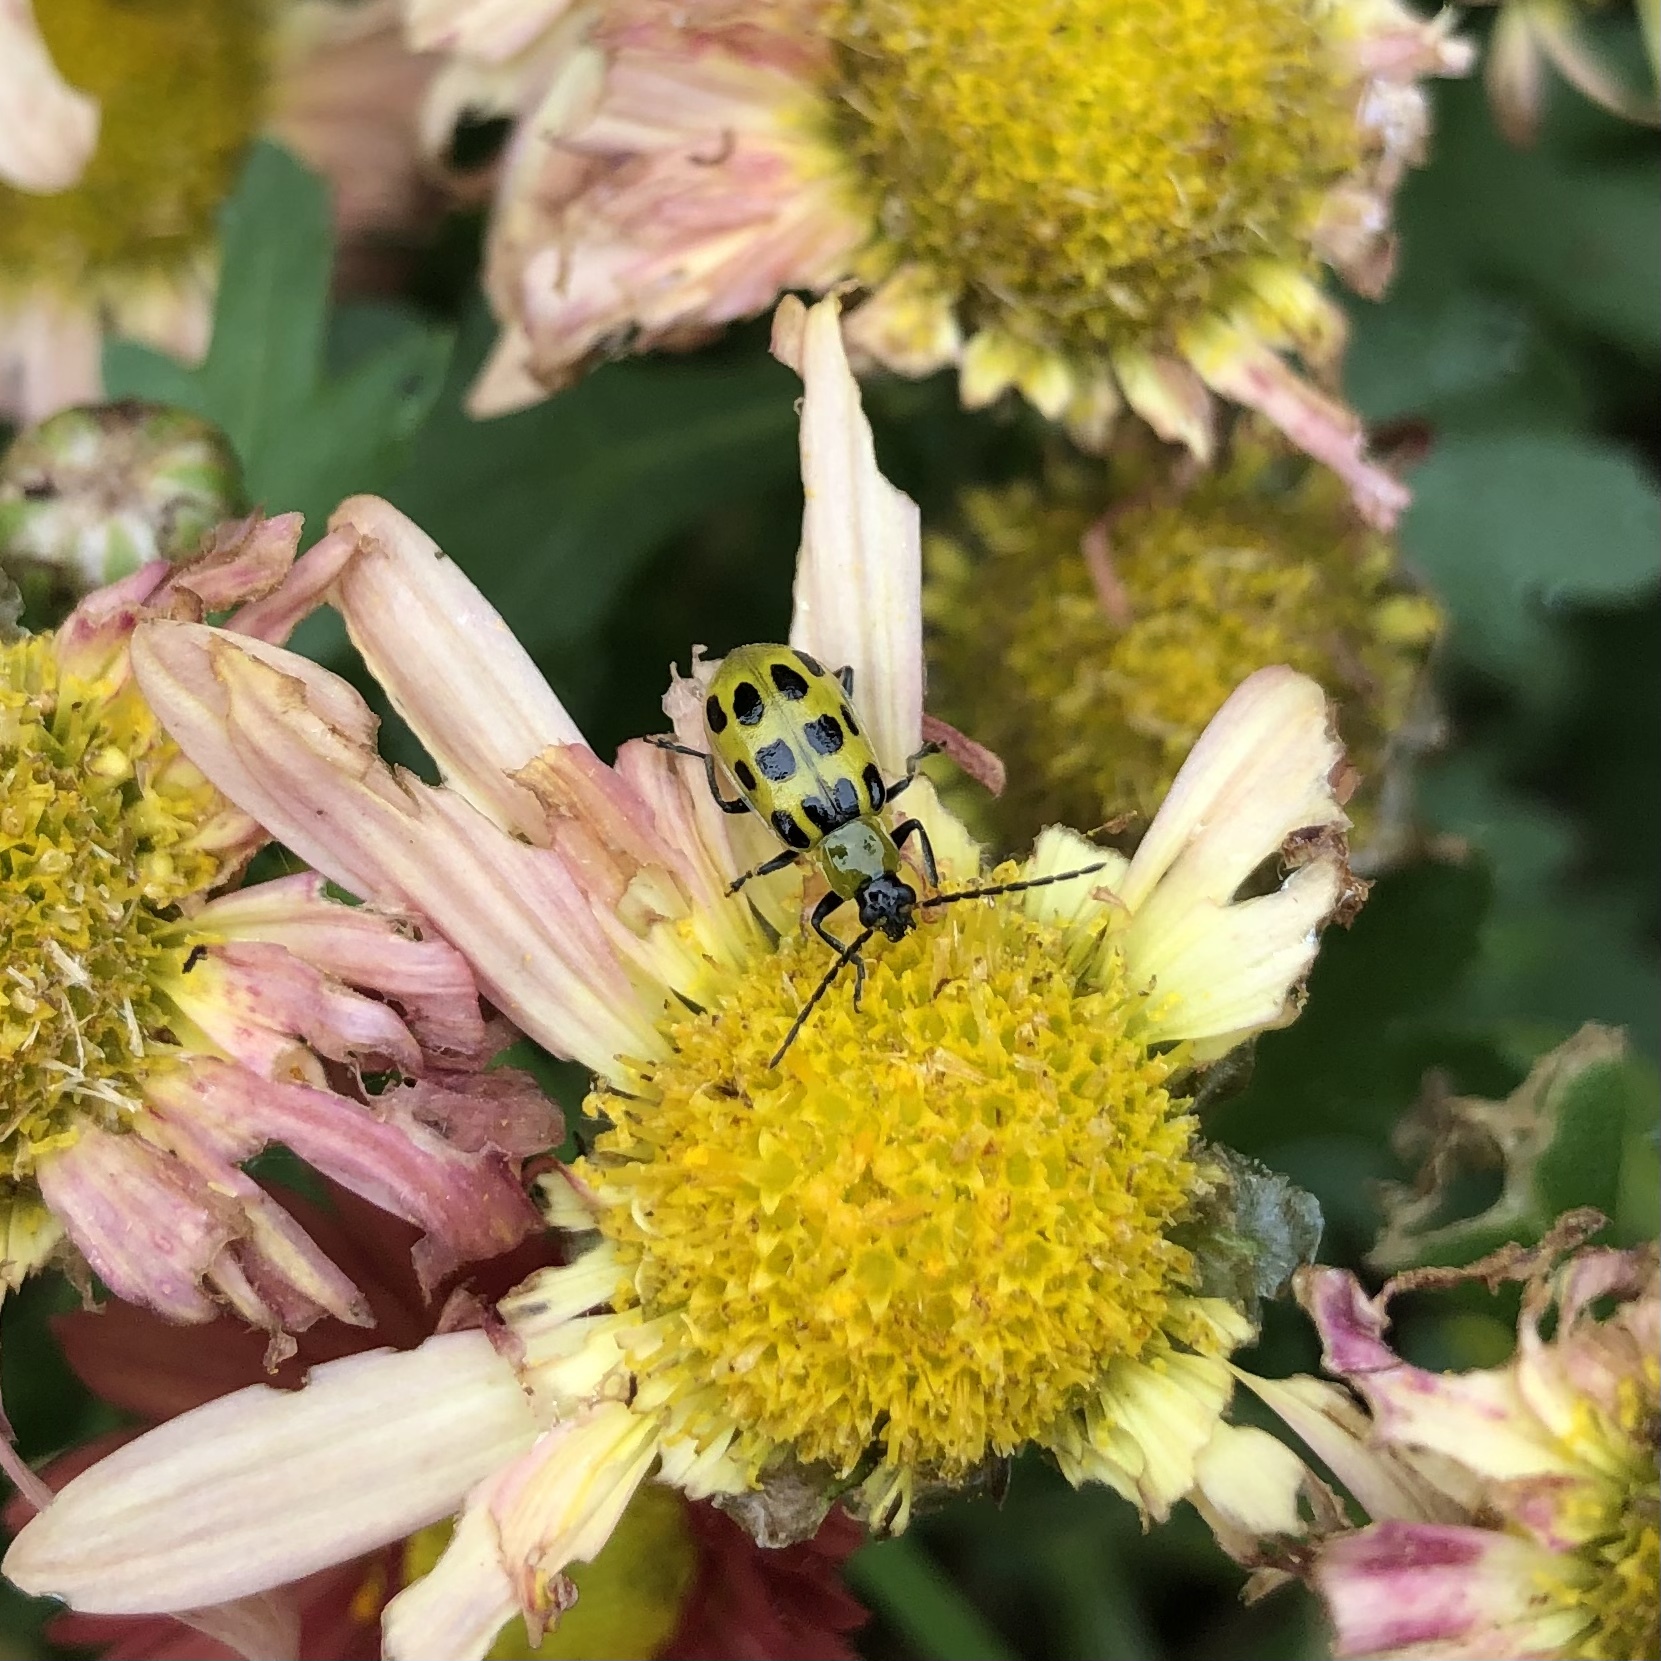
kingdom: Animalia
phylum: Arthropoda
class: Insecta
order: Coleoptera
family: Chrysomelidae
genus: Diabrotica
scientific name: Diabrotica undecimpunctata
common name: Spotted cucumber beetle
